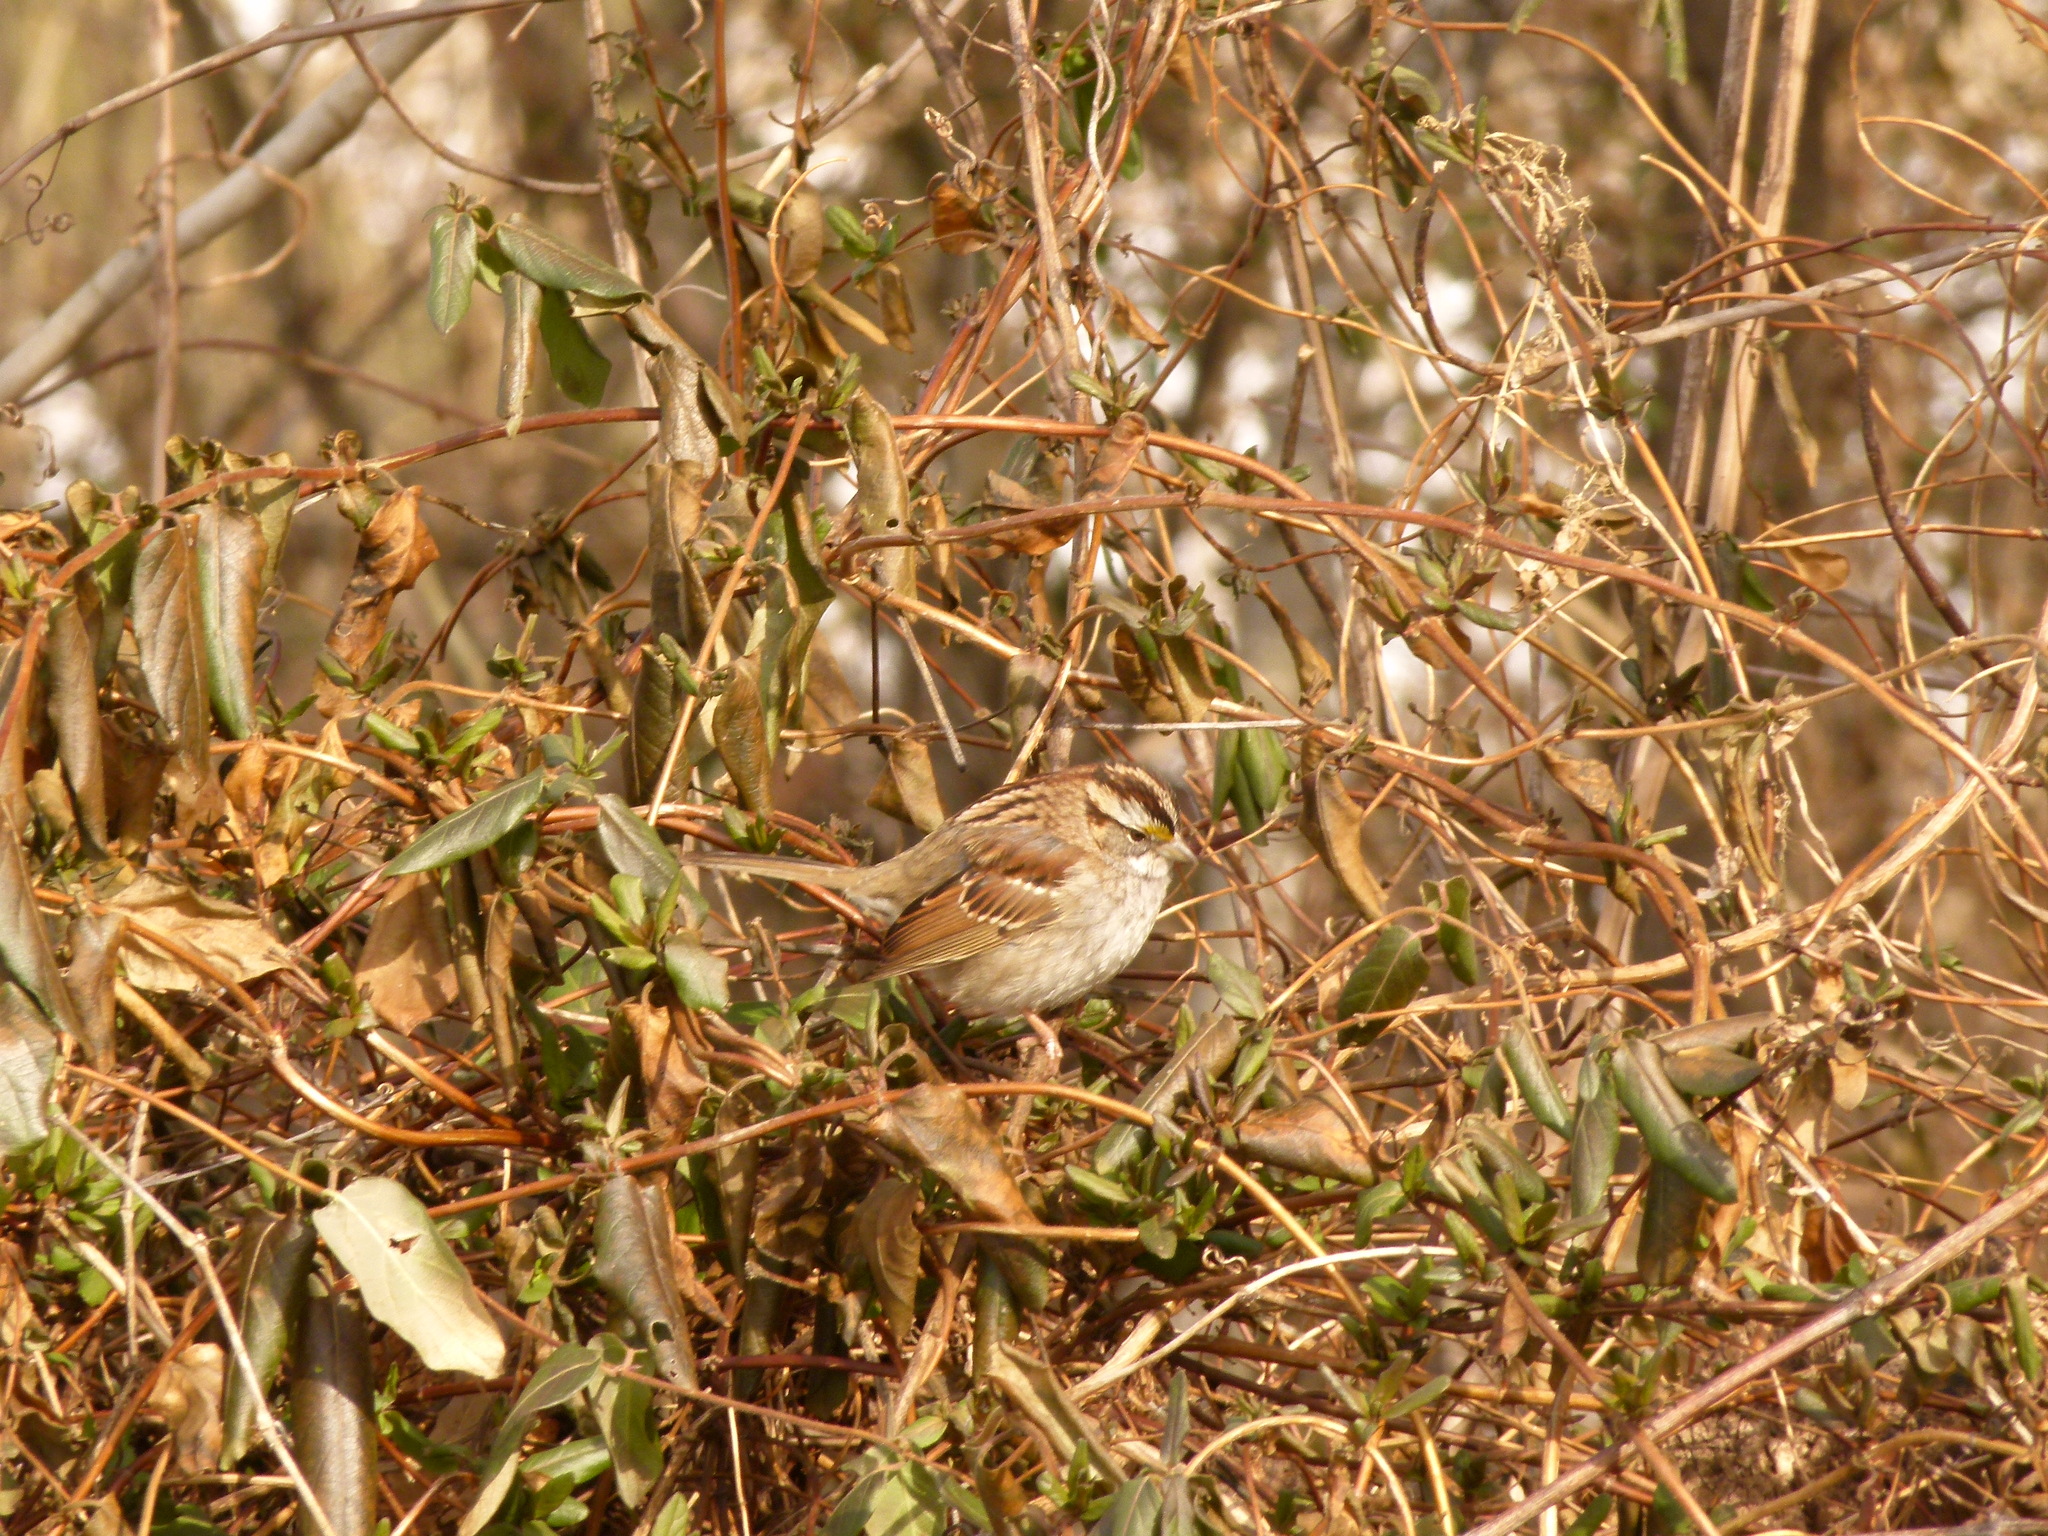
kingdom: Animalia
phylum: Chordata
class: Aves
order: Passeriformes
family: Passerellidae
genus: Zonotrichia
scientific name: Zonotrichia albicollis
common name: White-throated sparrow
